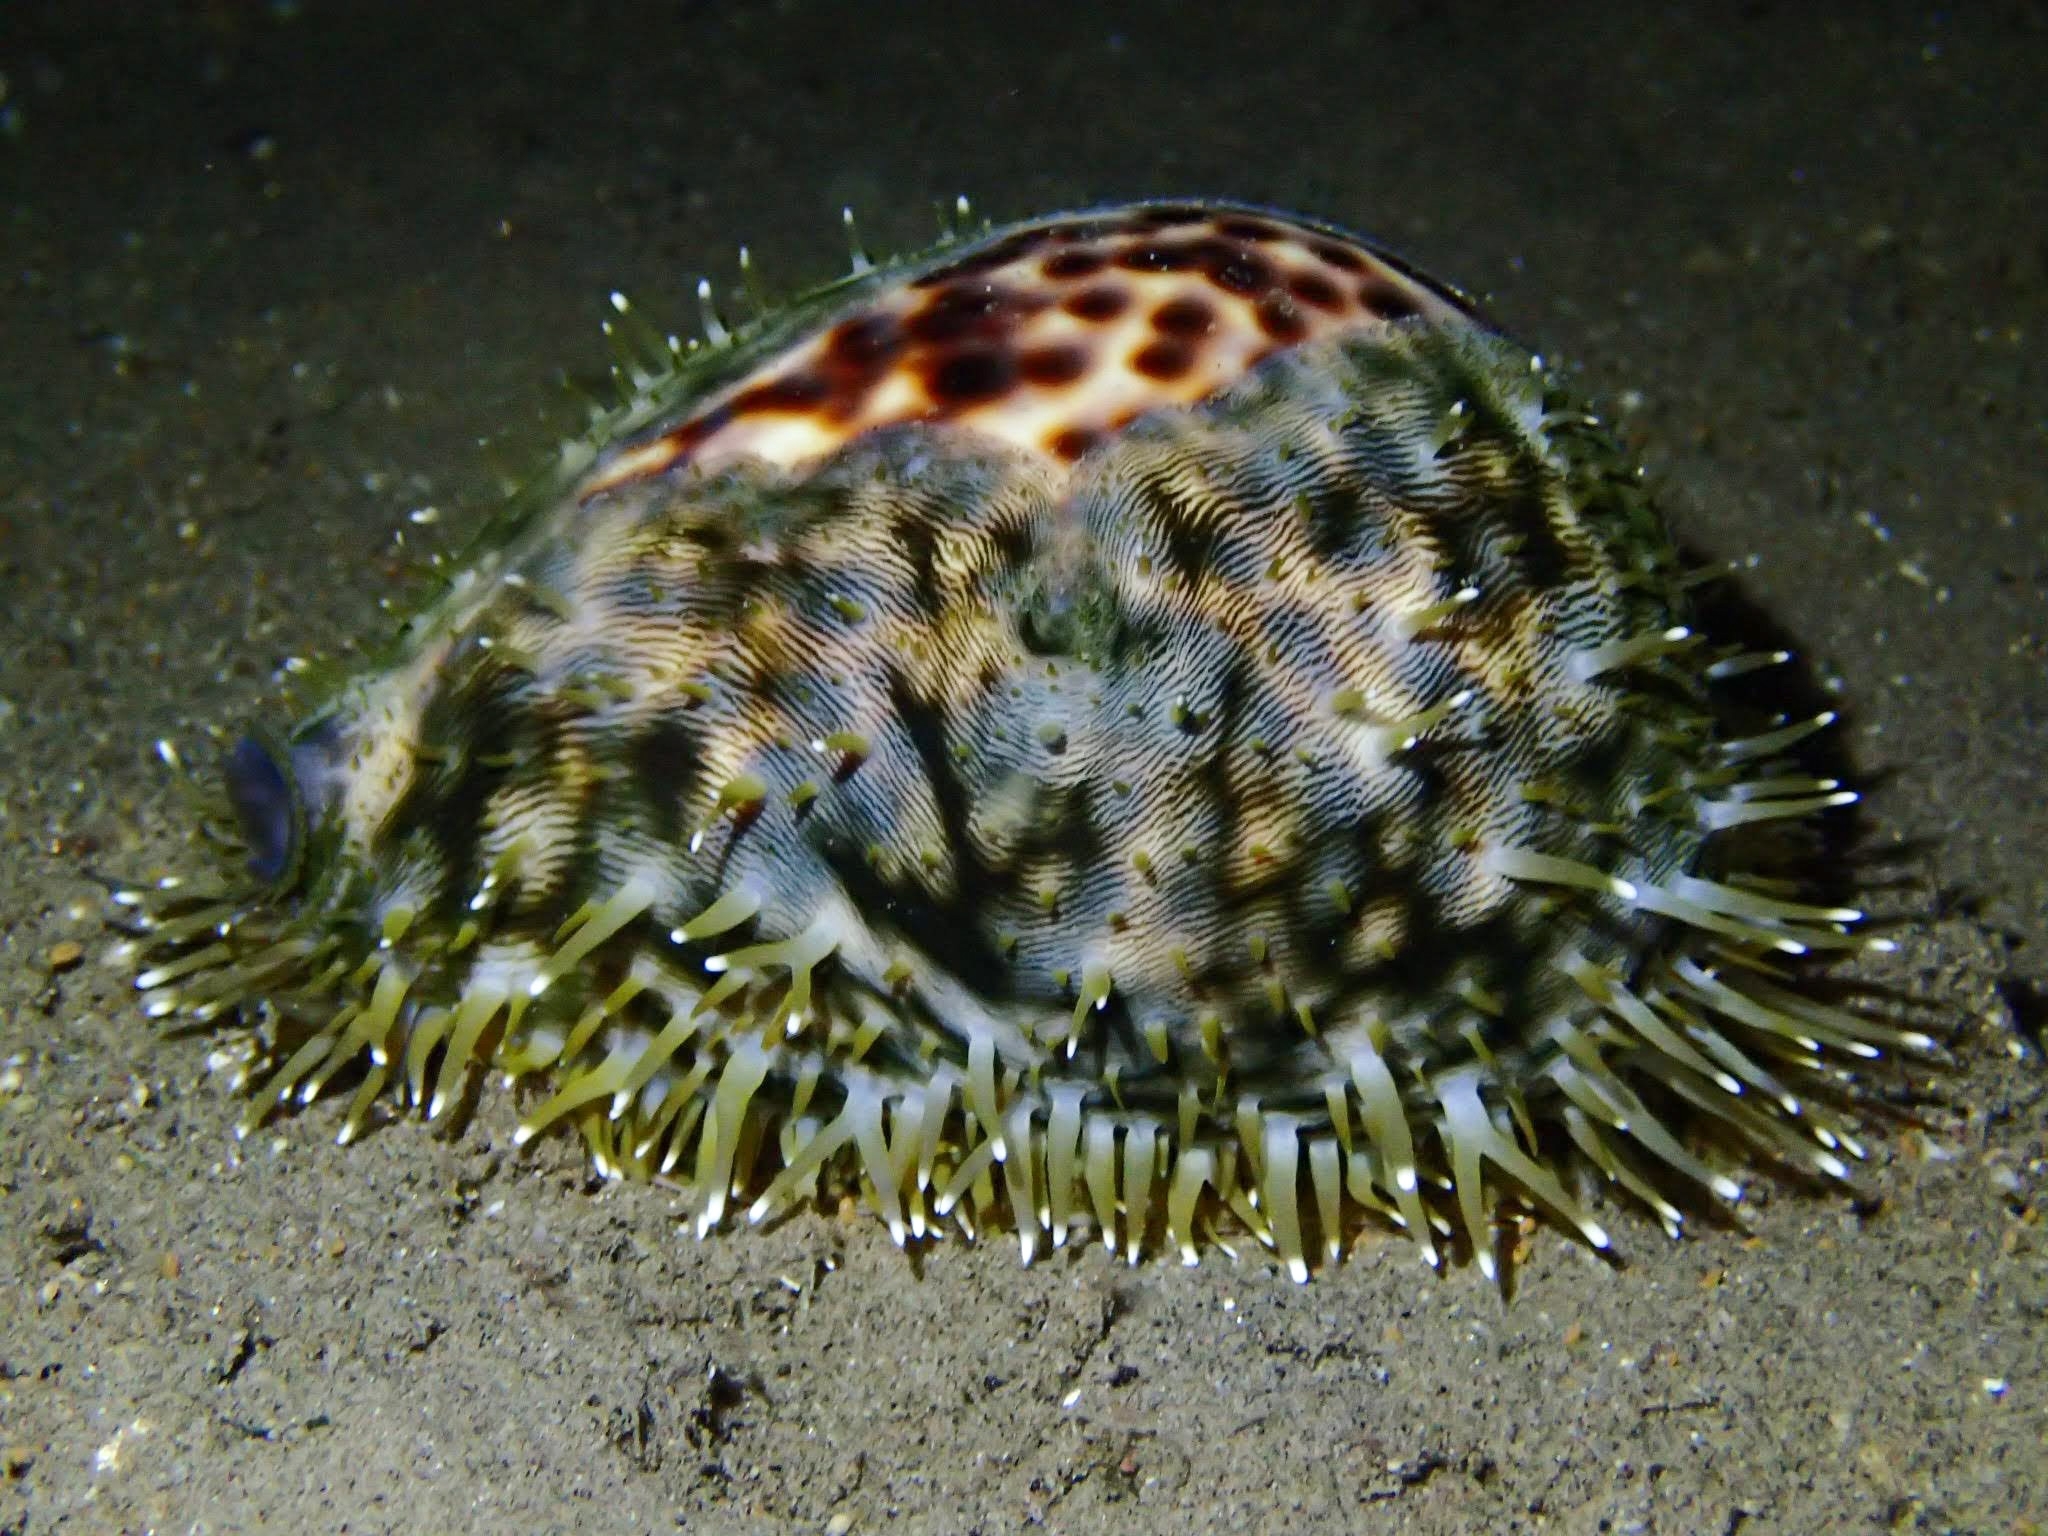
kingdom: Animalia
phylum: Mollusca
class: Gastropoda
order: Littorinimorpha
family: Cypraeidae
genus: Cypraea
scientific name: Cypraea tigris
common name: Tiger cowrie
